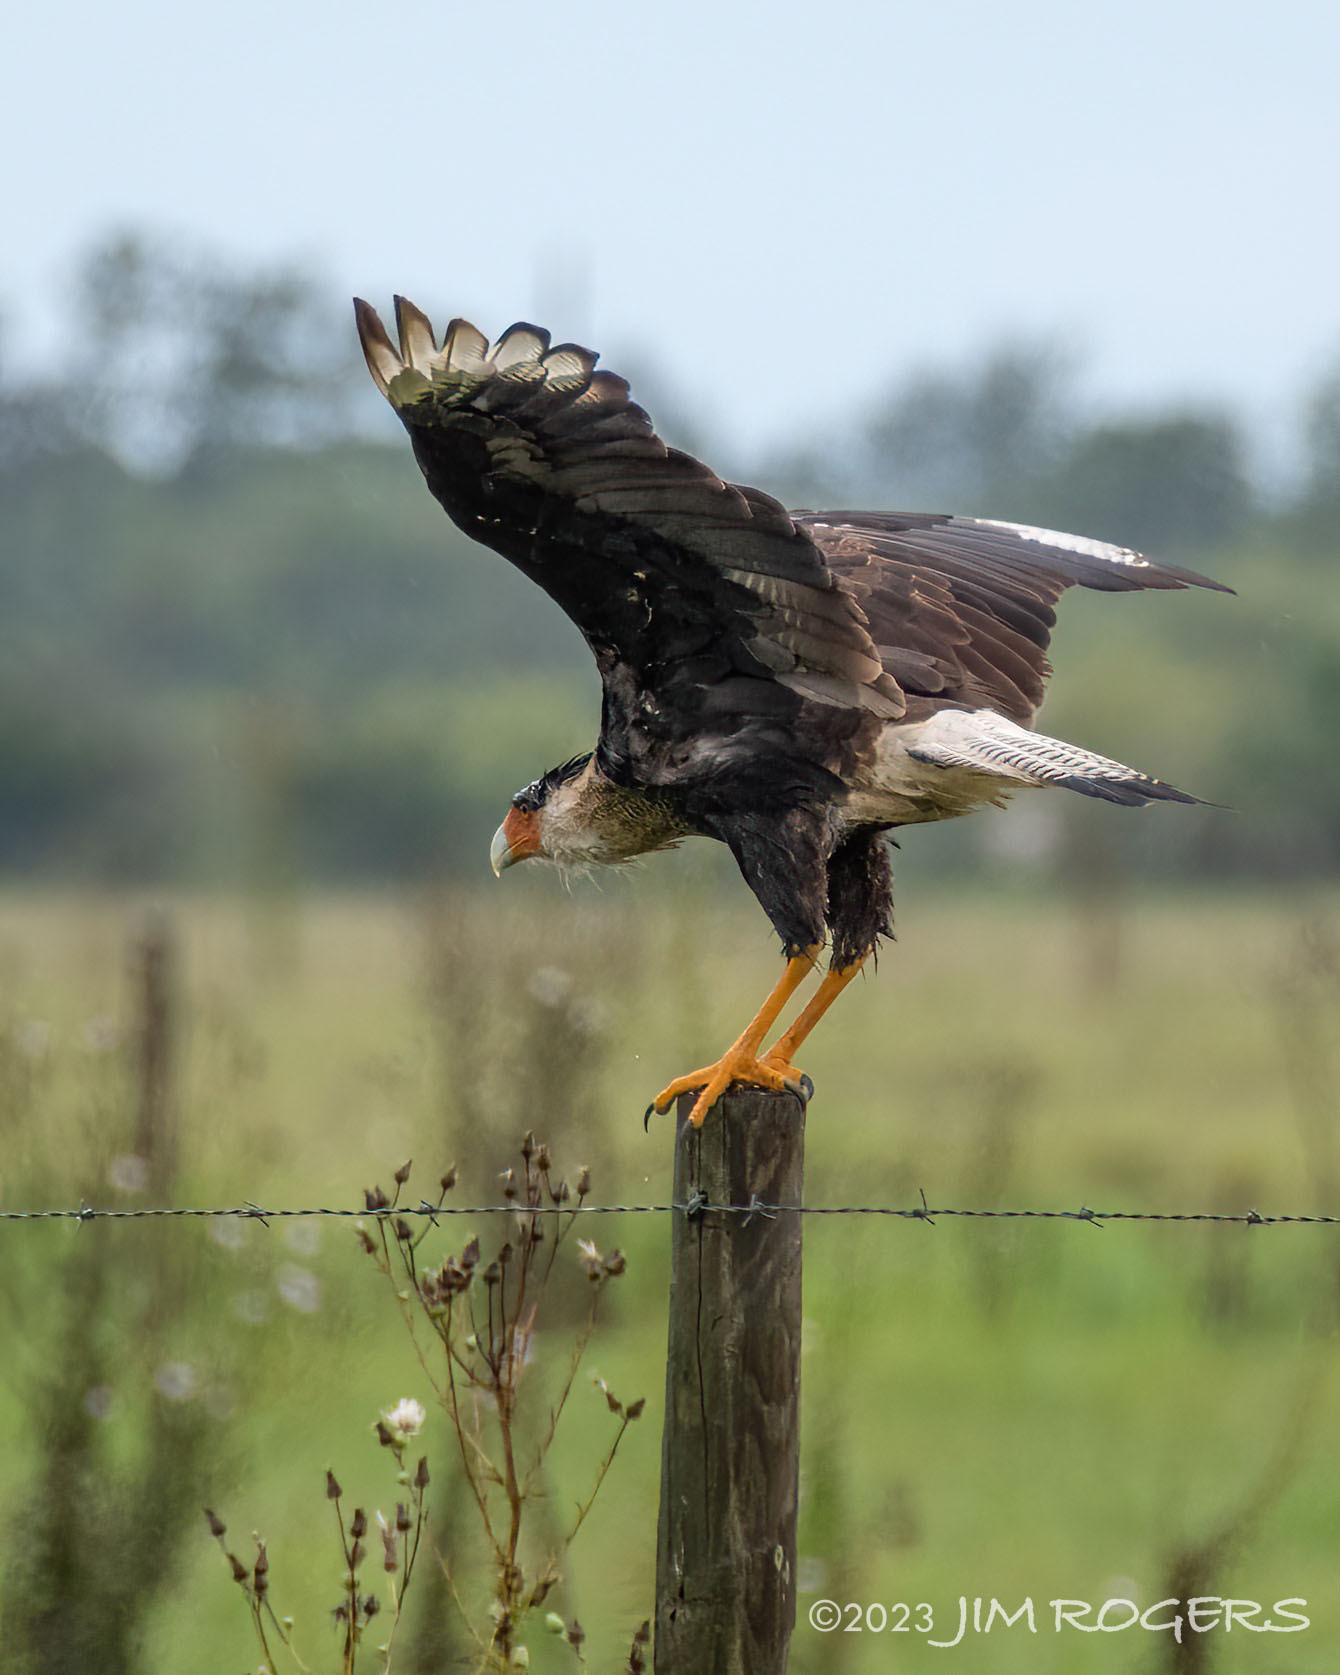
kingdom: Animalia
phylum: Chordata
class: Aves
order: Falconiformes
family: Falconidae
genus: Caracara
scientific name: Caracara plancus
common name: Southern caracara
